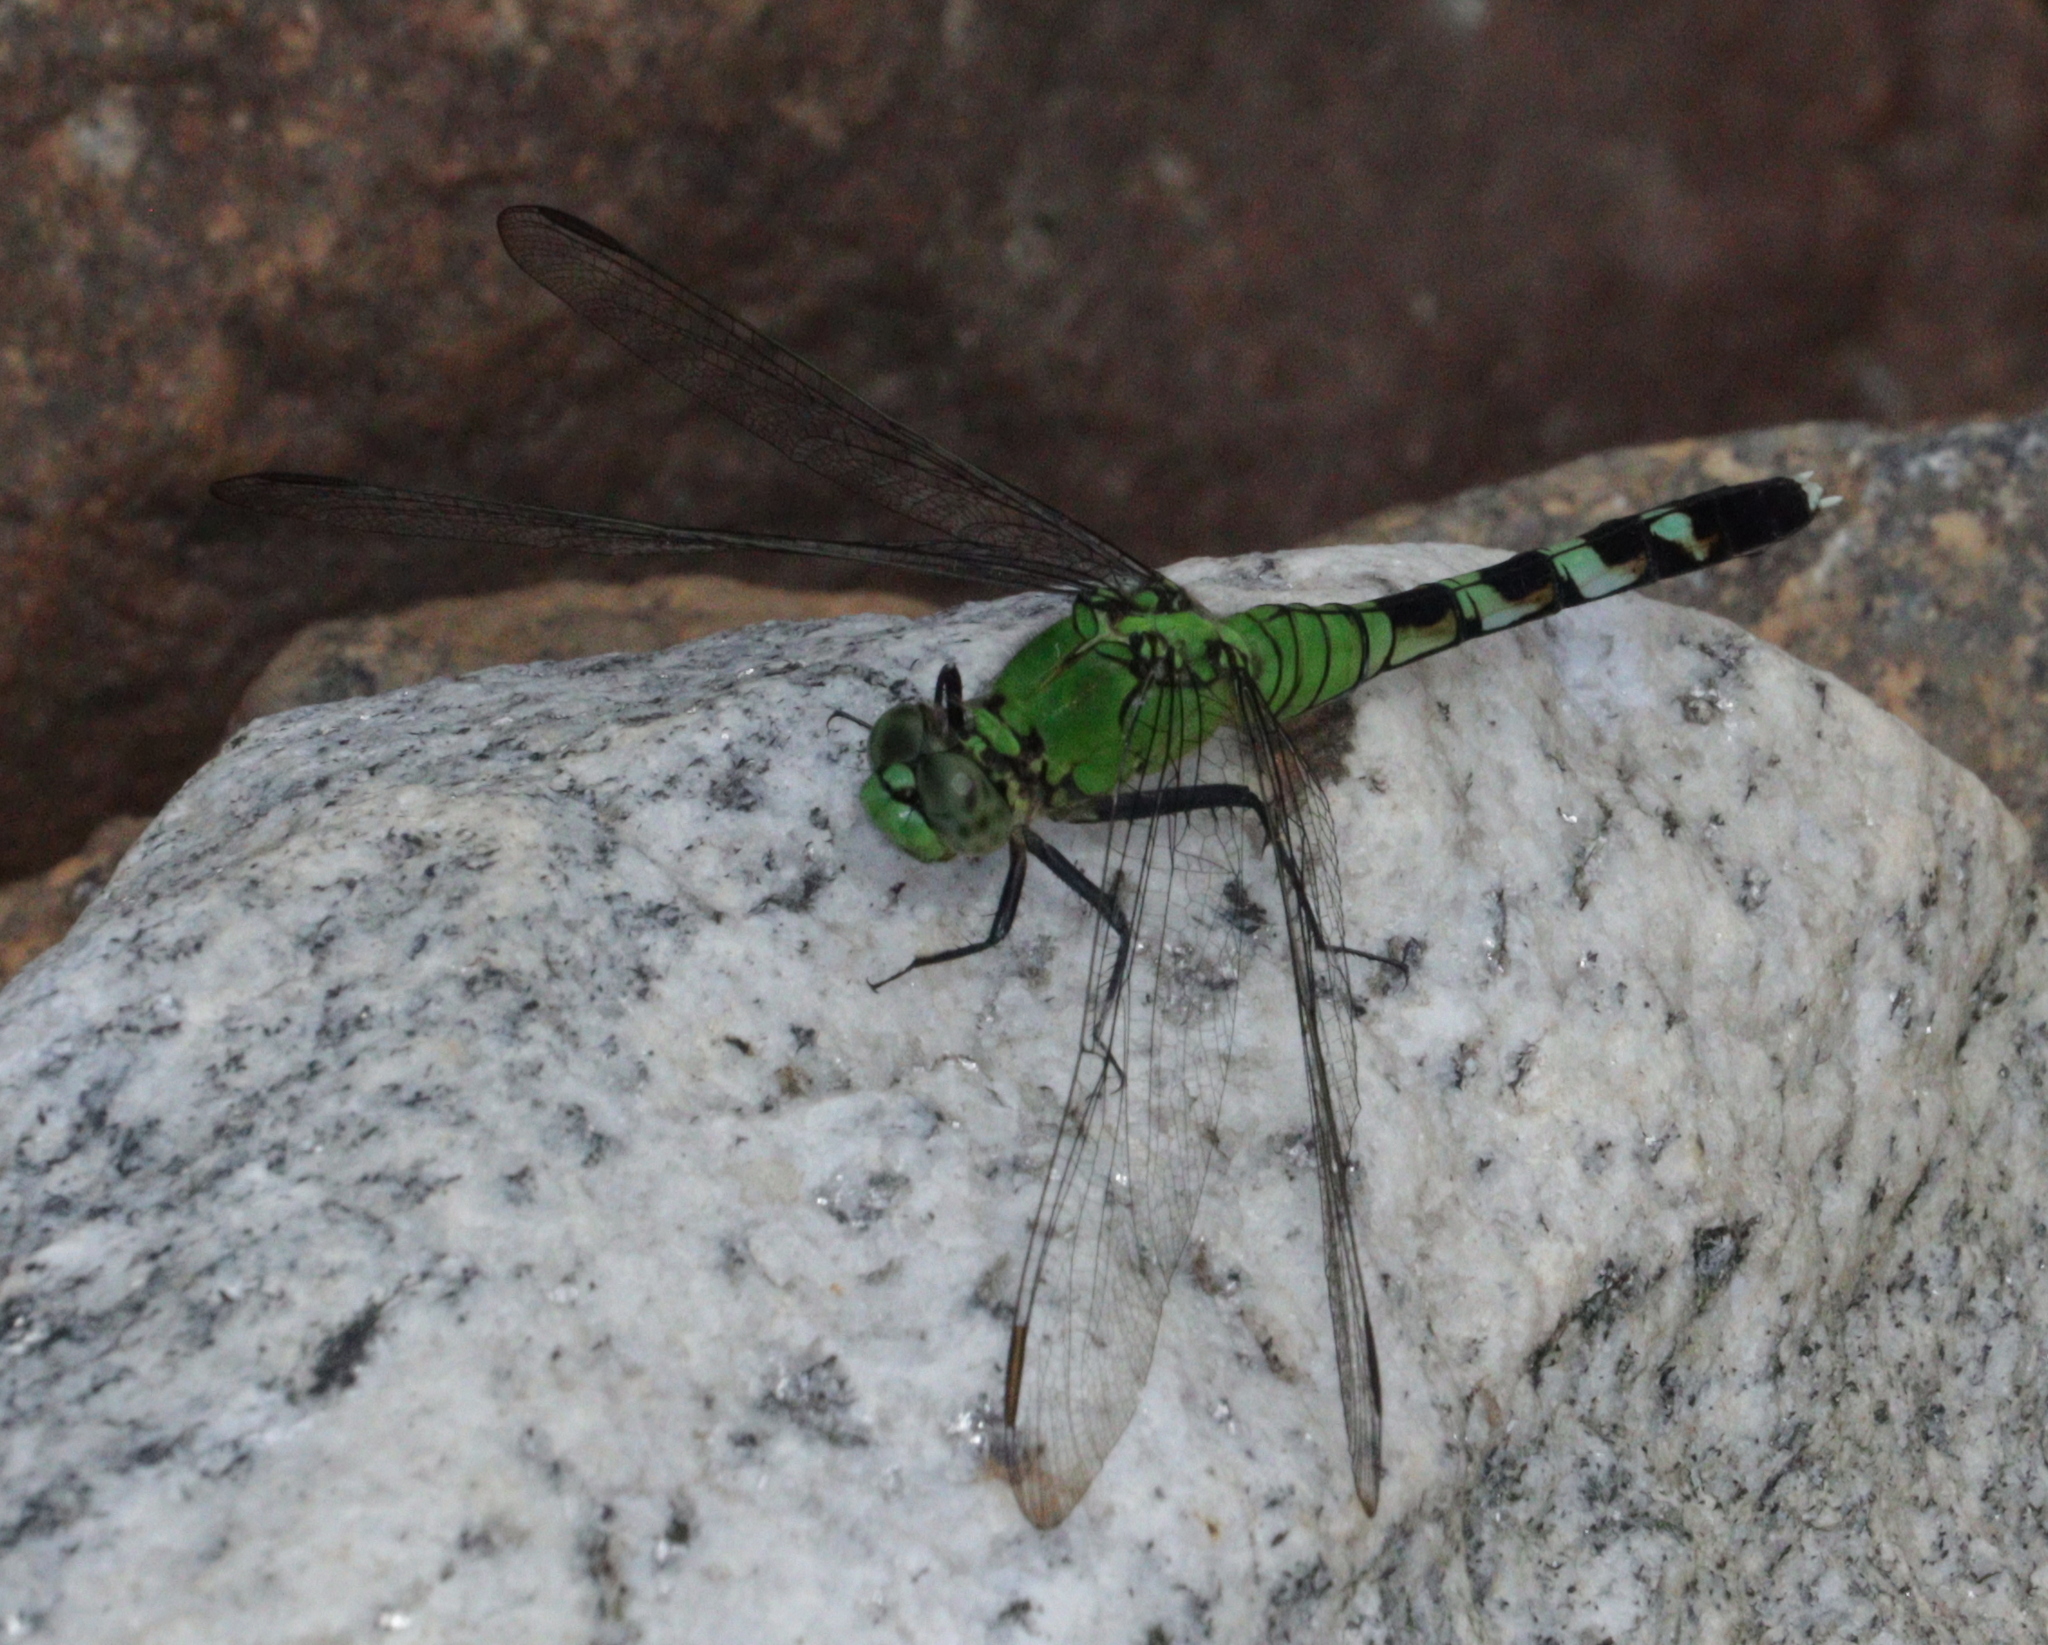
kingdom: Animalia
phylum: Arthropoda
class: Insecta
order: Odonata
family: Libellulidae
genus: Erythemis
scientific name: Erythemis simplicicollis
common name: Eastern pondhawk
